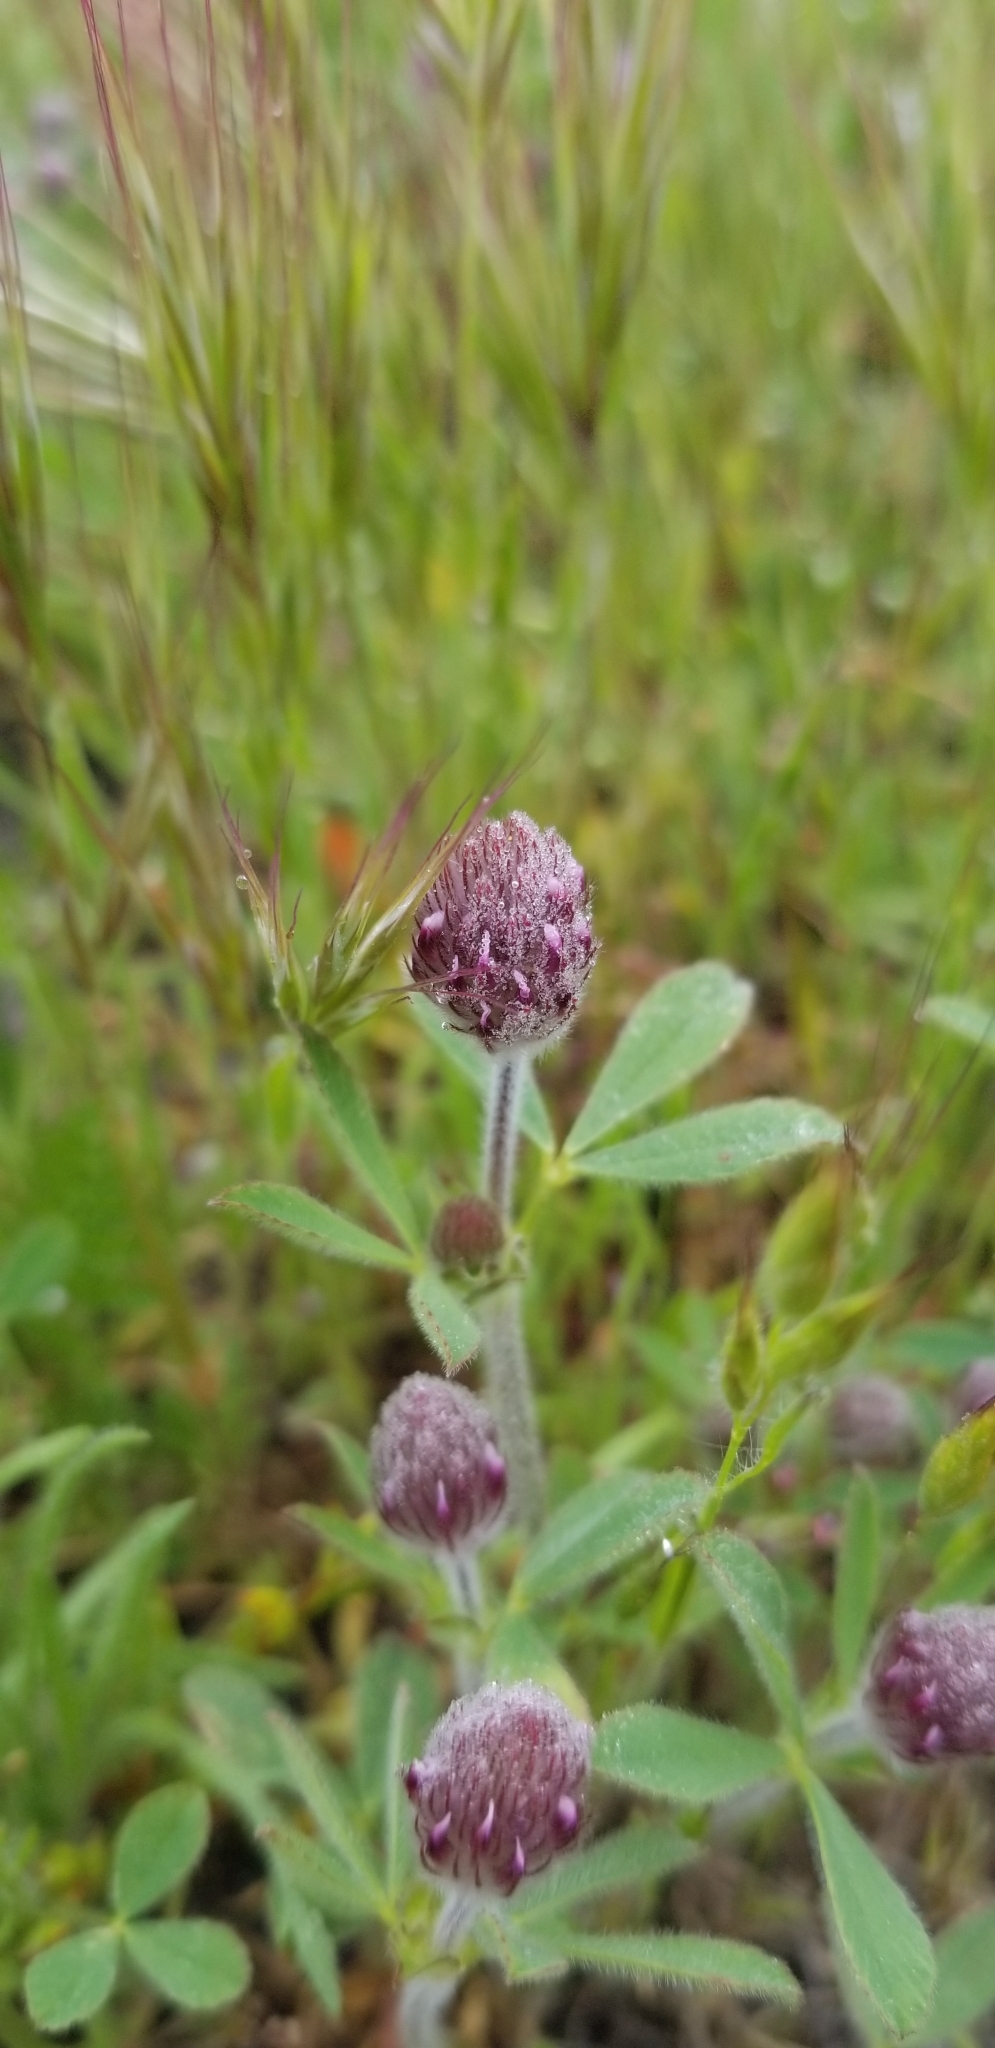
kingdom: Plantae
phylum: Tracheophyta
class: Magnoliopsida
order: Fabales
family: Fabaceae
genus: Trifolium
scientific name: Trifolium albopurpureum
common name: Rancheria clover
